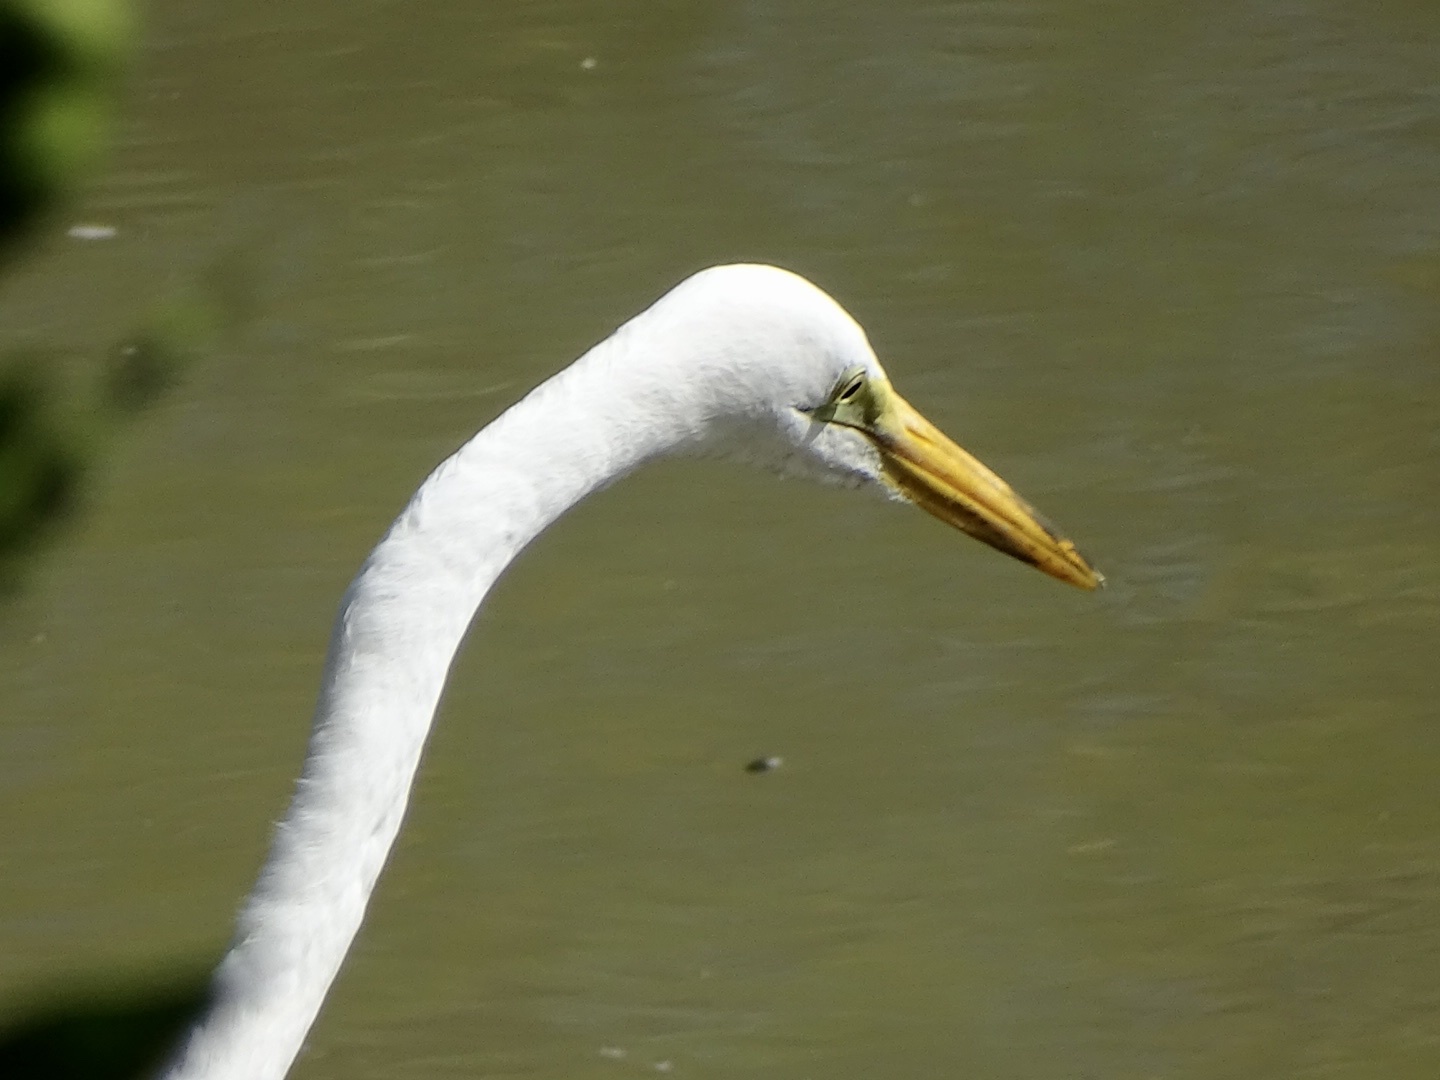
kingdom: Animalia
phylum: Chordata
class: Aves
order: Pelecaniformes
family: Ardeidae
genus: Ardea
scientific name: Ardea alba
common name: Great egret
